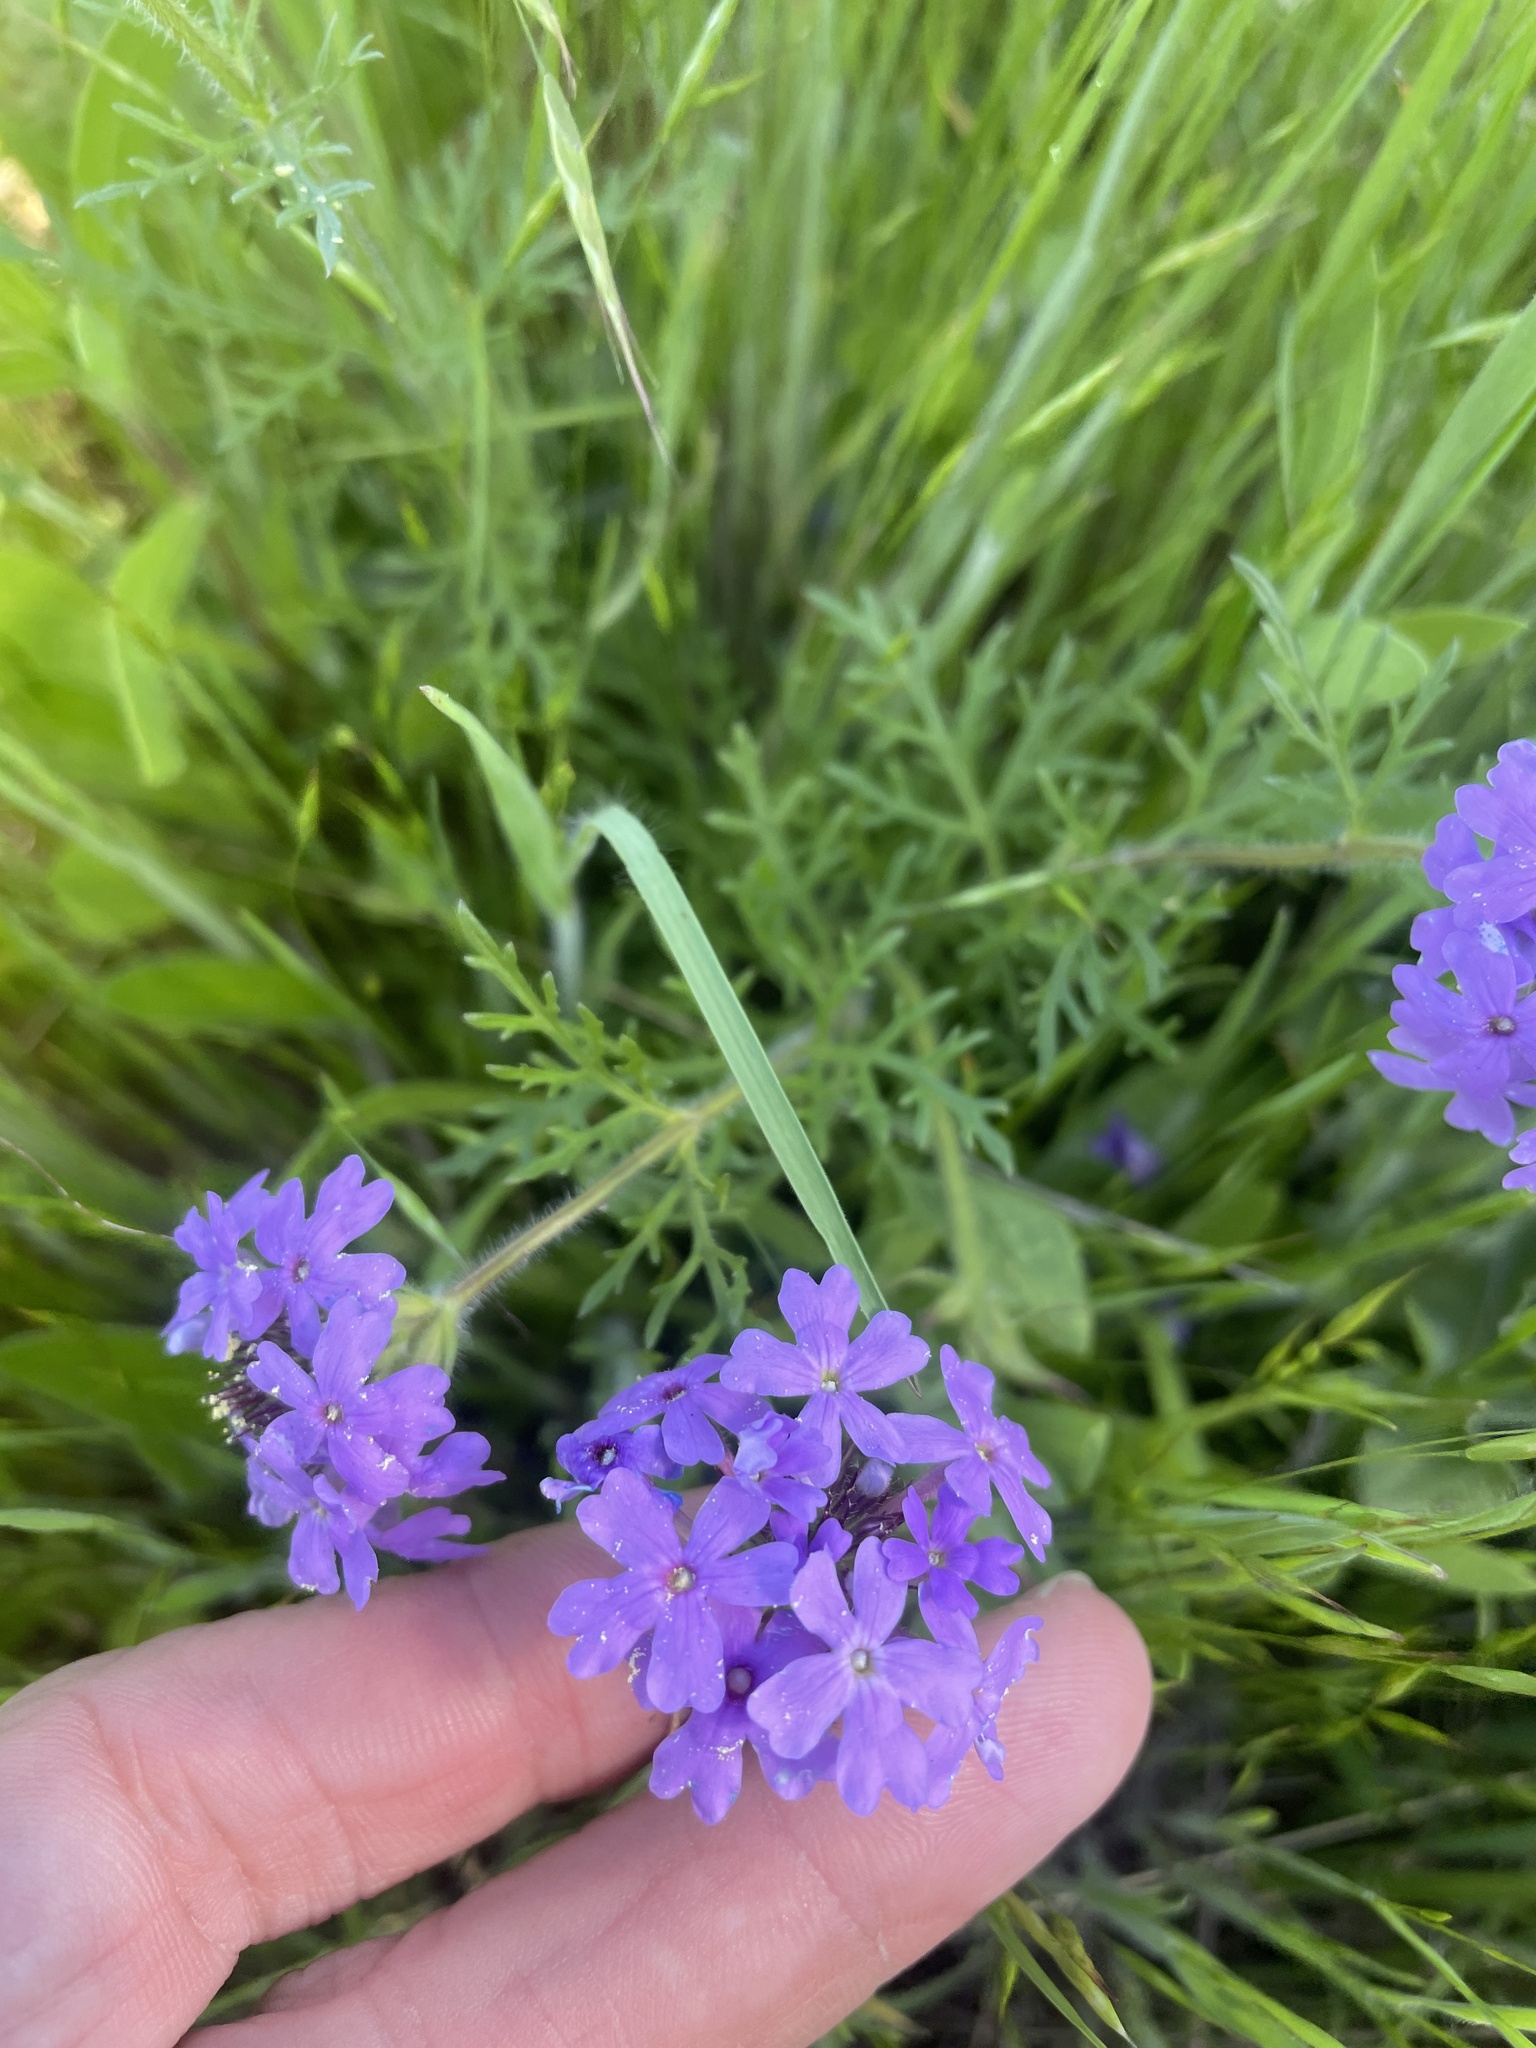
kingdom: Plantae
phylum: Tracheophyta
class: Magnoliopsida
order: Lamiales
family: Verbenaceae
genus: Verbena
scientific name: Verbena bipinnatifida
